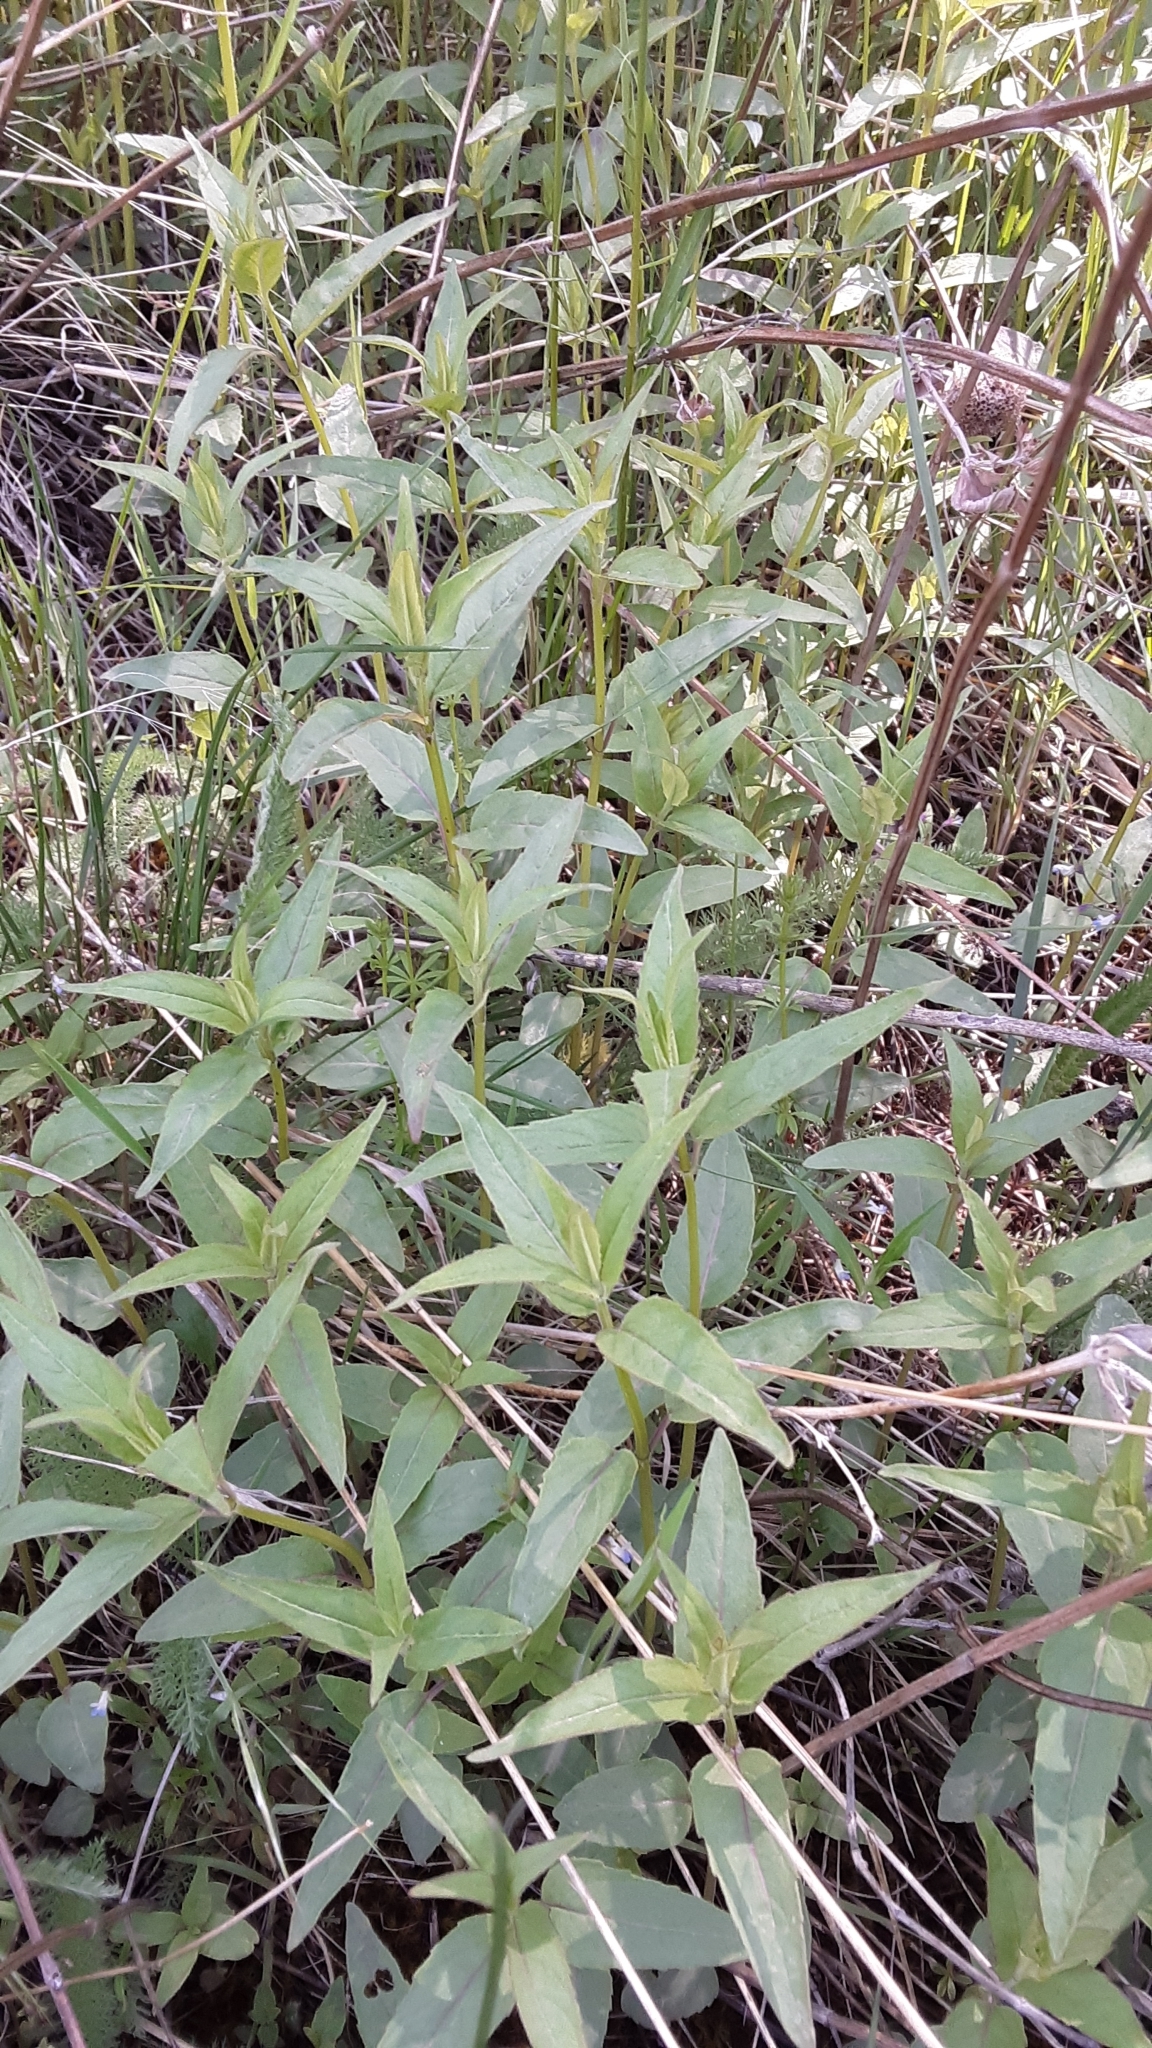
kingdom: Plantae
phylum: Tracheophyta
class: Magnoliopsida
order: Lamiales
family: Lamiaceae
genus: Monarda
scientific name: Monarda fistulosa
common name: Purple beebalm
